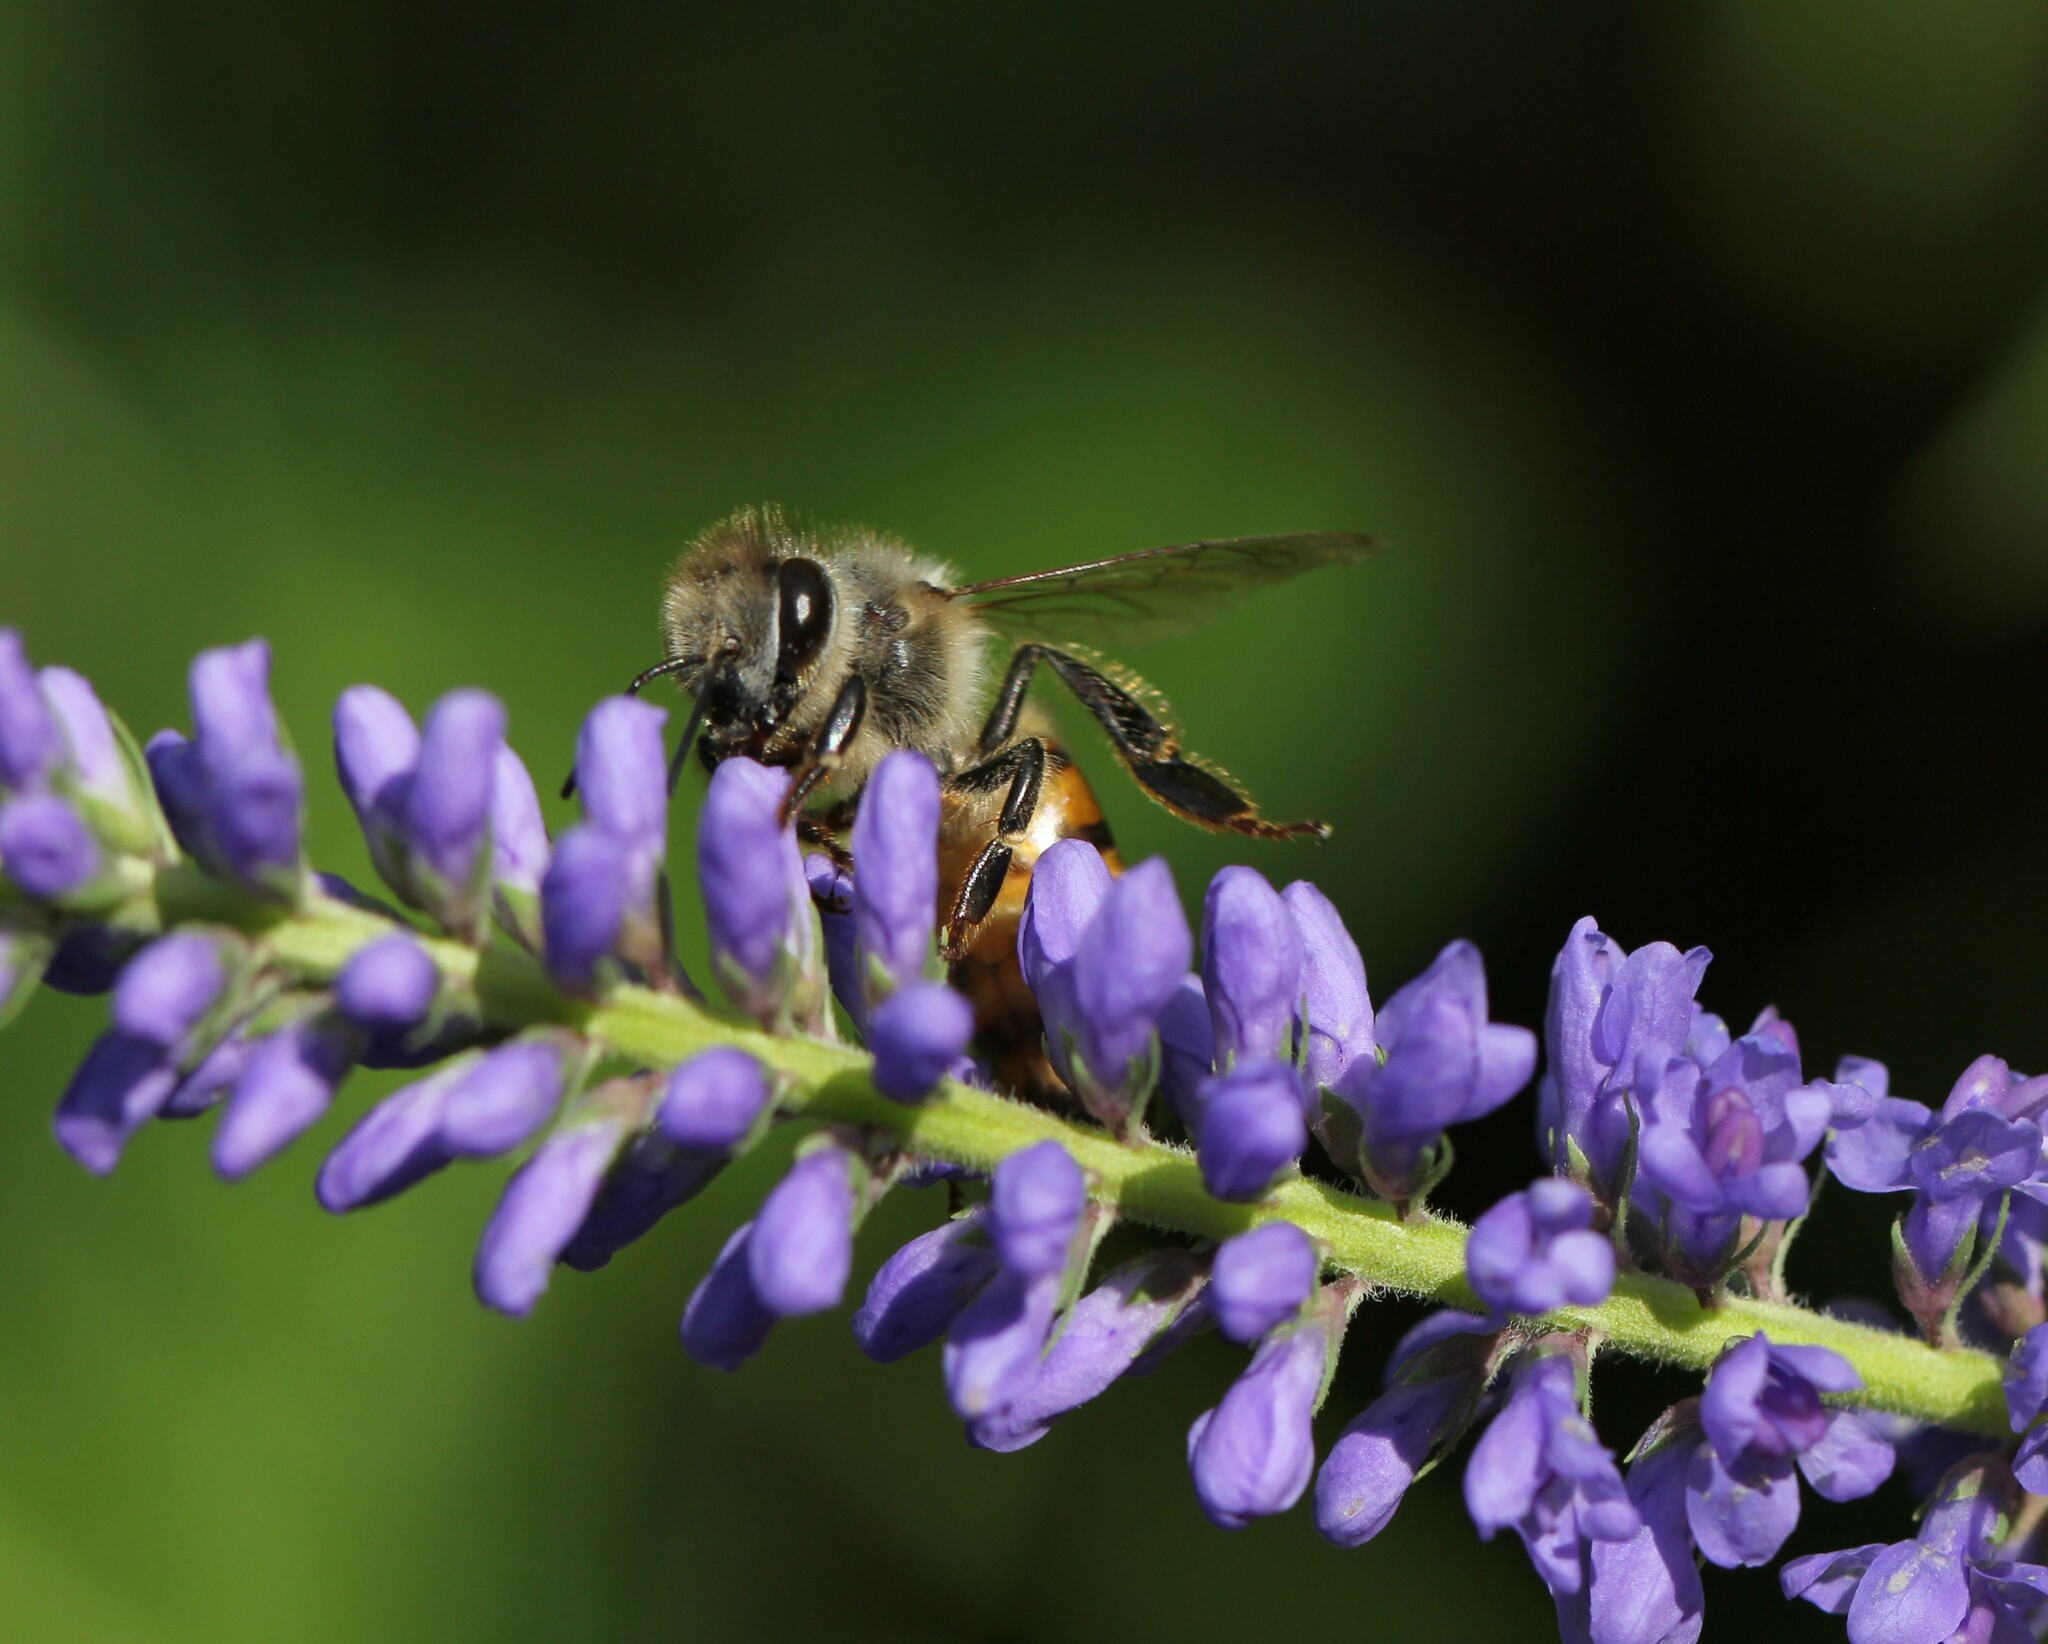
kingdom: Animalia
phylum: Arthropoda
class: Insecta
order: Hymenoptera
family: Apidae
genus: Apis
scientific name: Apis mellifera
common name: Honey bee
